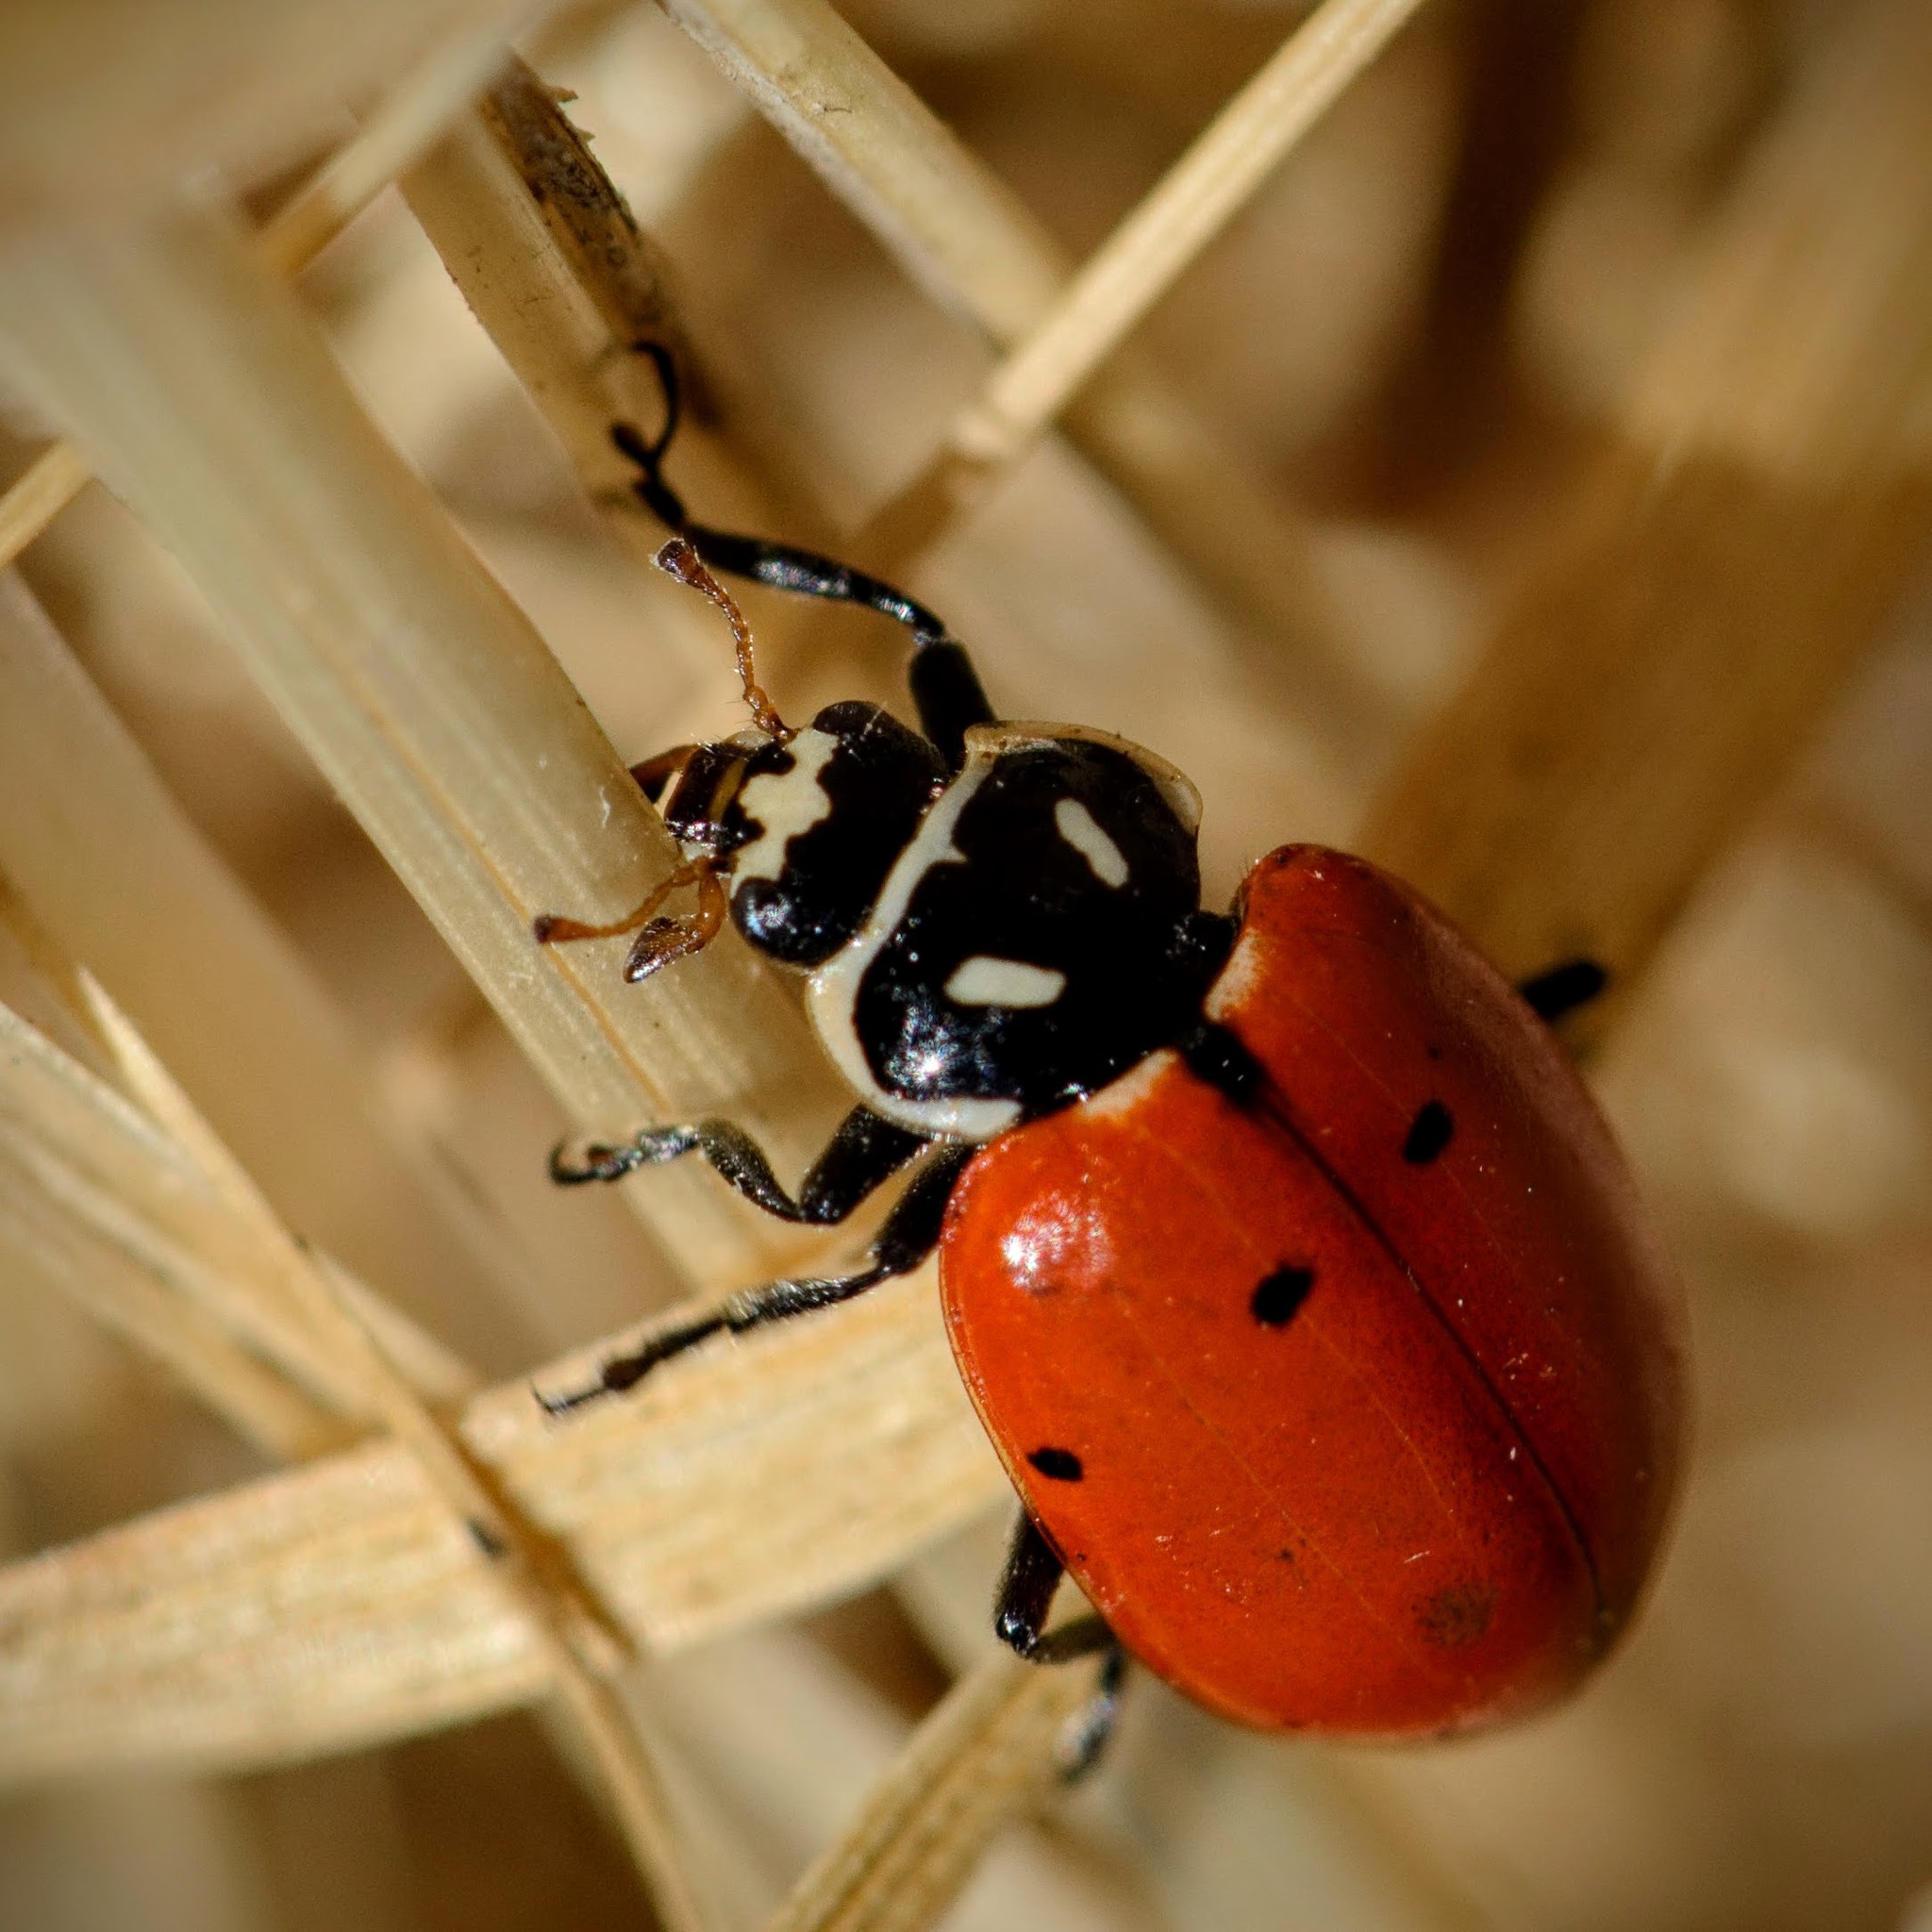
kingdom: Animalia
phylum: Arthropoda
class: Insecta
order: Coleoptera
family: Coccinellidae
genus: Hippodamia
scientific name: Hippodamia convergens
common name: Convergent lady beetle
